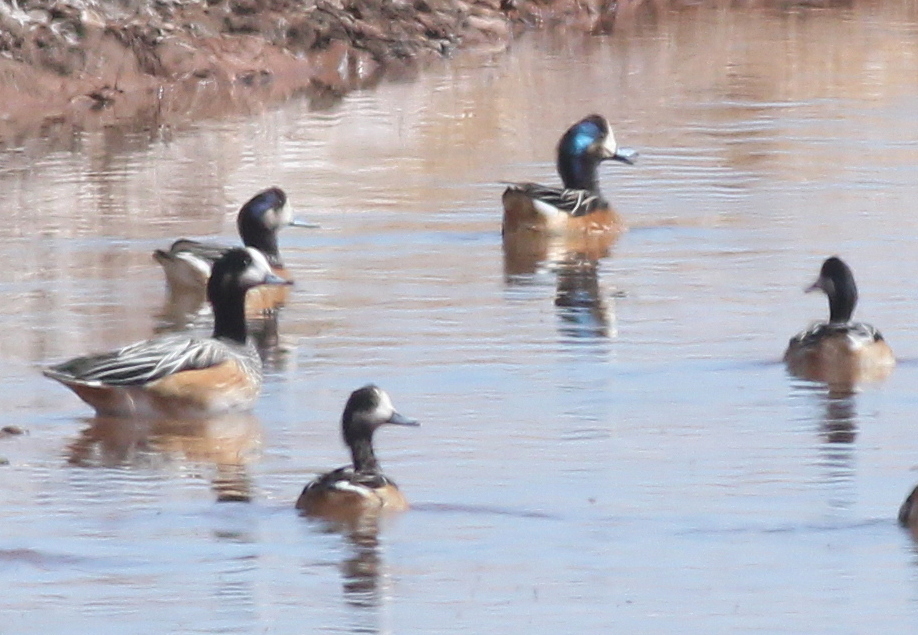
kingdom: Animalia
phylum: Chordata
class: Aves
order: Anseriformes
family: Anatidae
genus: Mareca
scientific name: Mareca sibilatrix
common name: Chiloe wigeon
